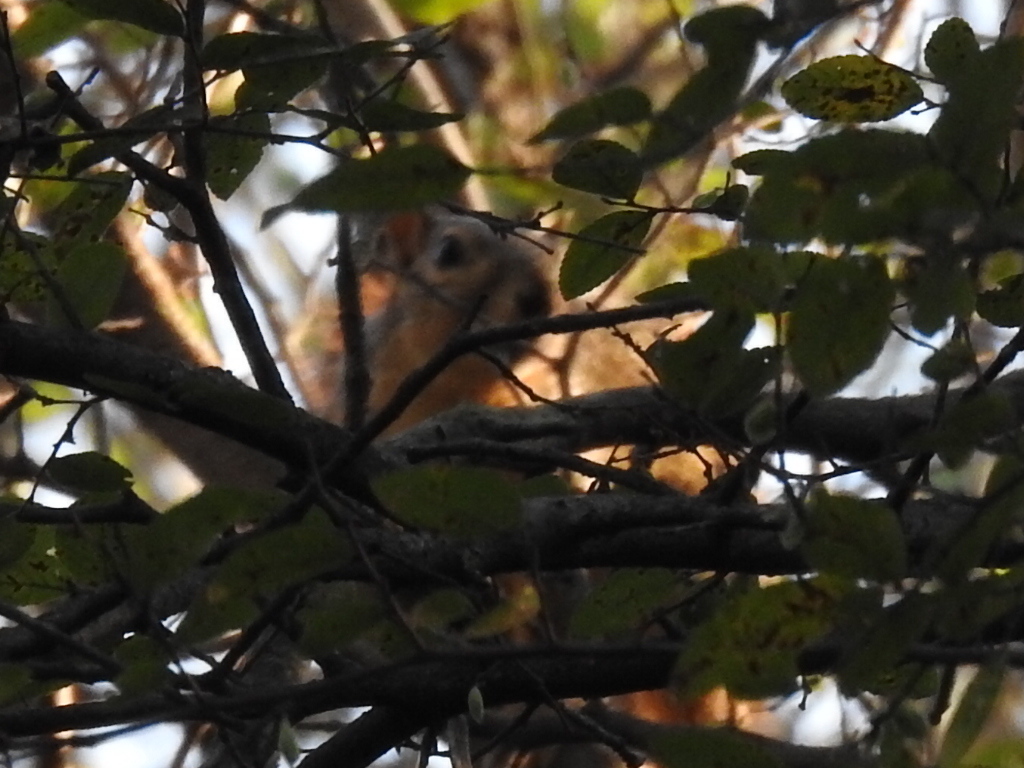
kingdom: Animalia
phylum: Chordata
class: Mammalia
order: Rodentia
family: Sciuridae
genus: Sciurus
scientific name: Sciurus niger
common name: Fox squirrel
